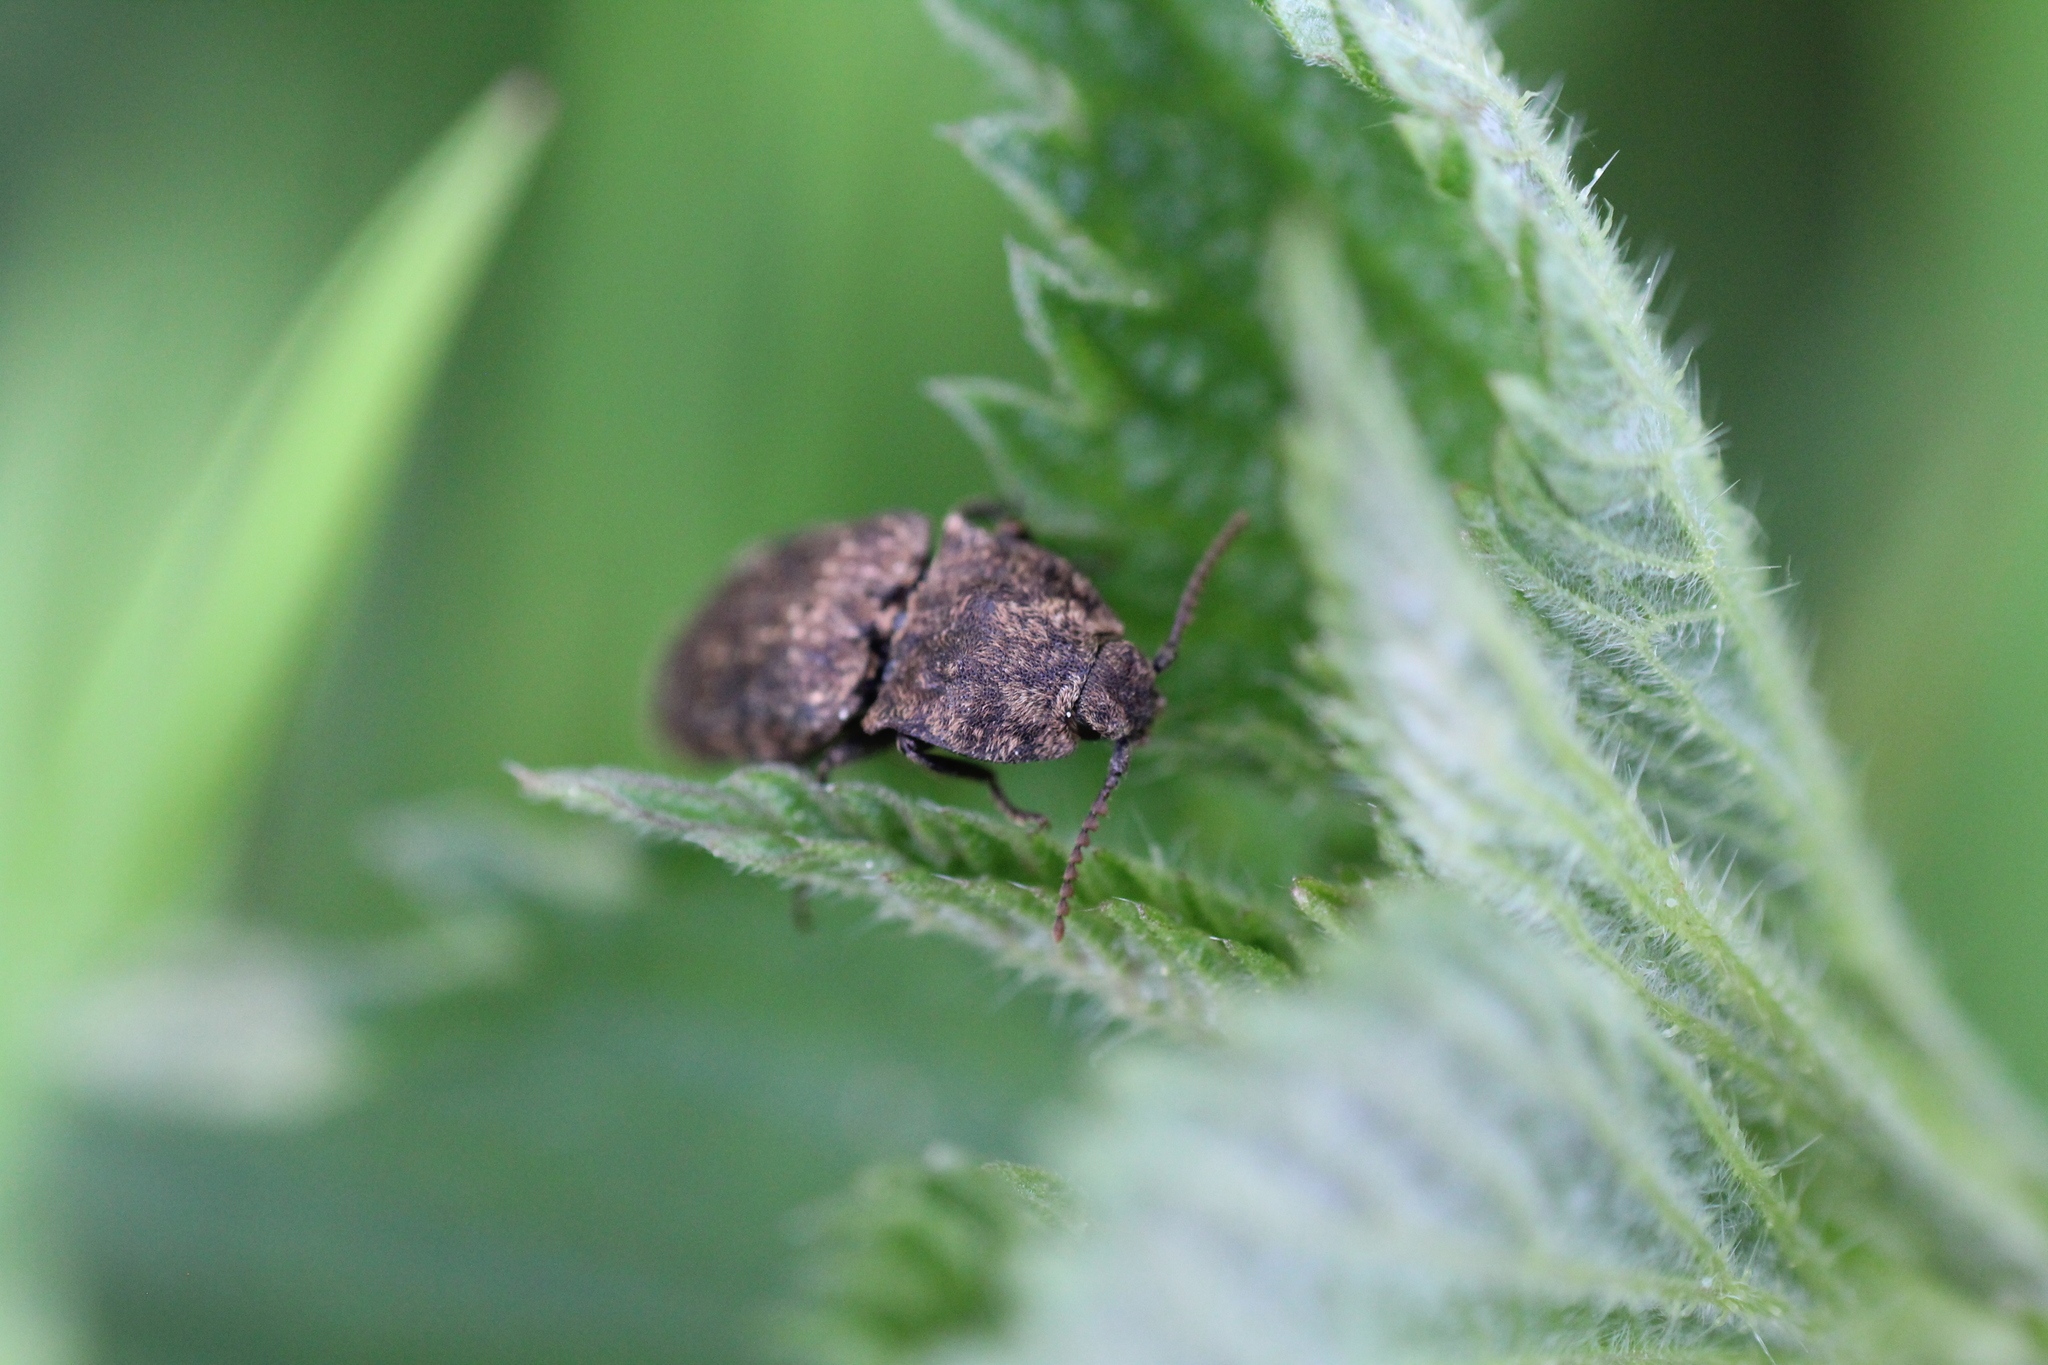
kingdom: Animalia
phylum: Arthropoda
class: Insecta
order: Coleoptera
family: Elateridae
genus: Agrypnus
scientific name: Agrypnus murinus
